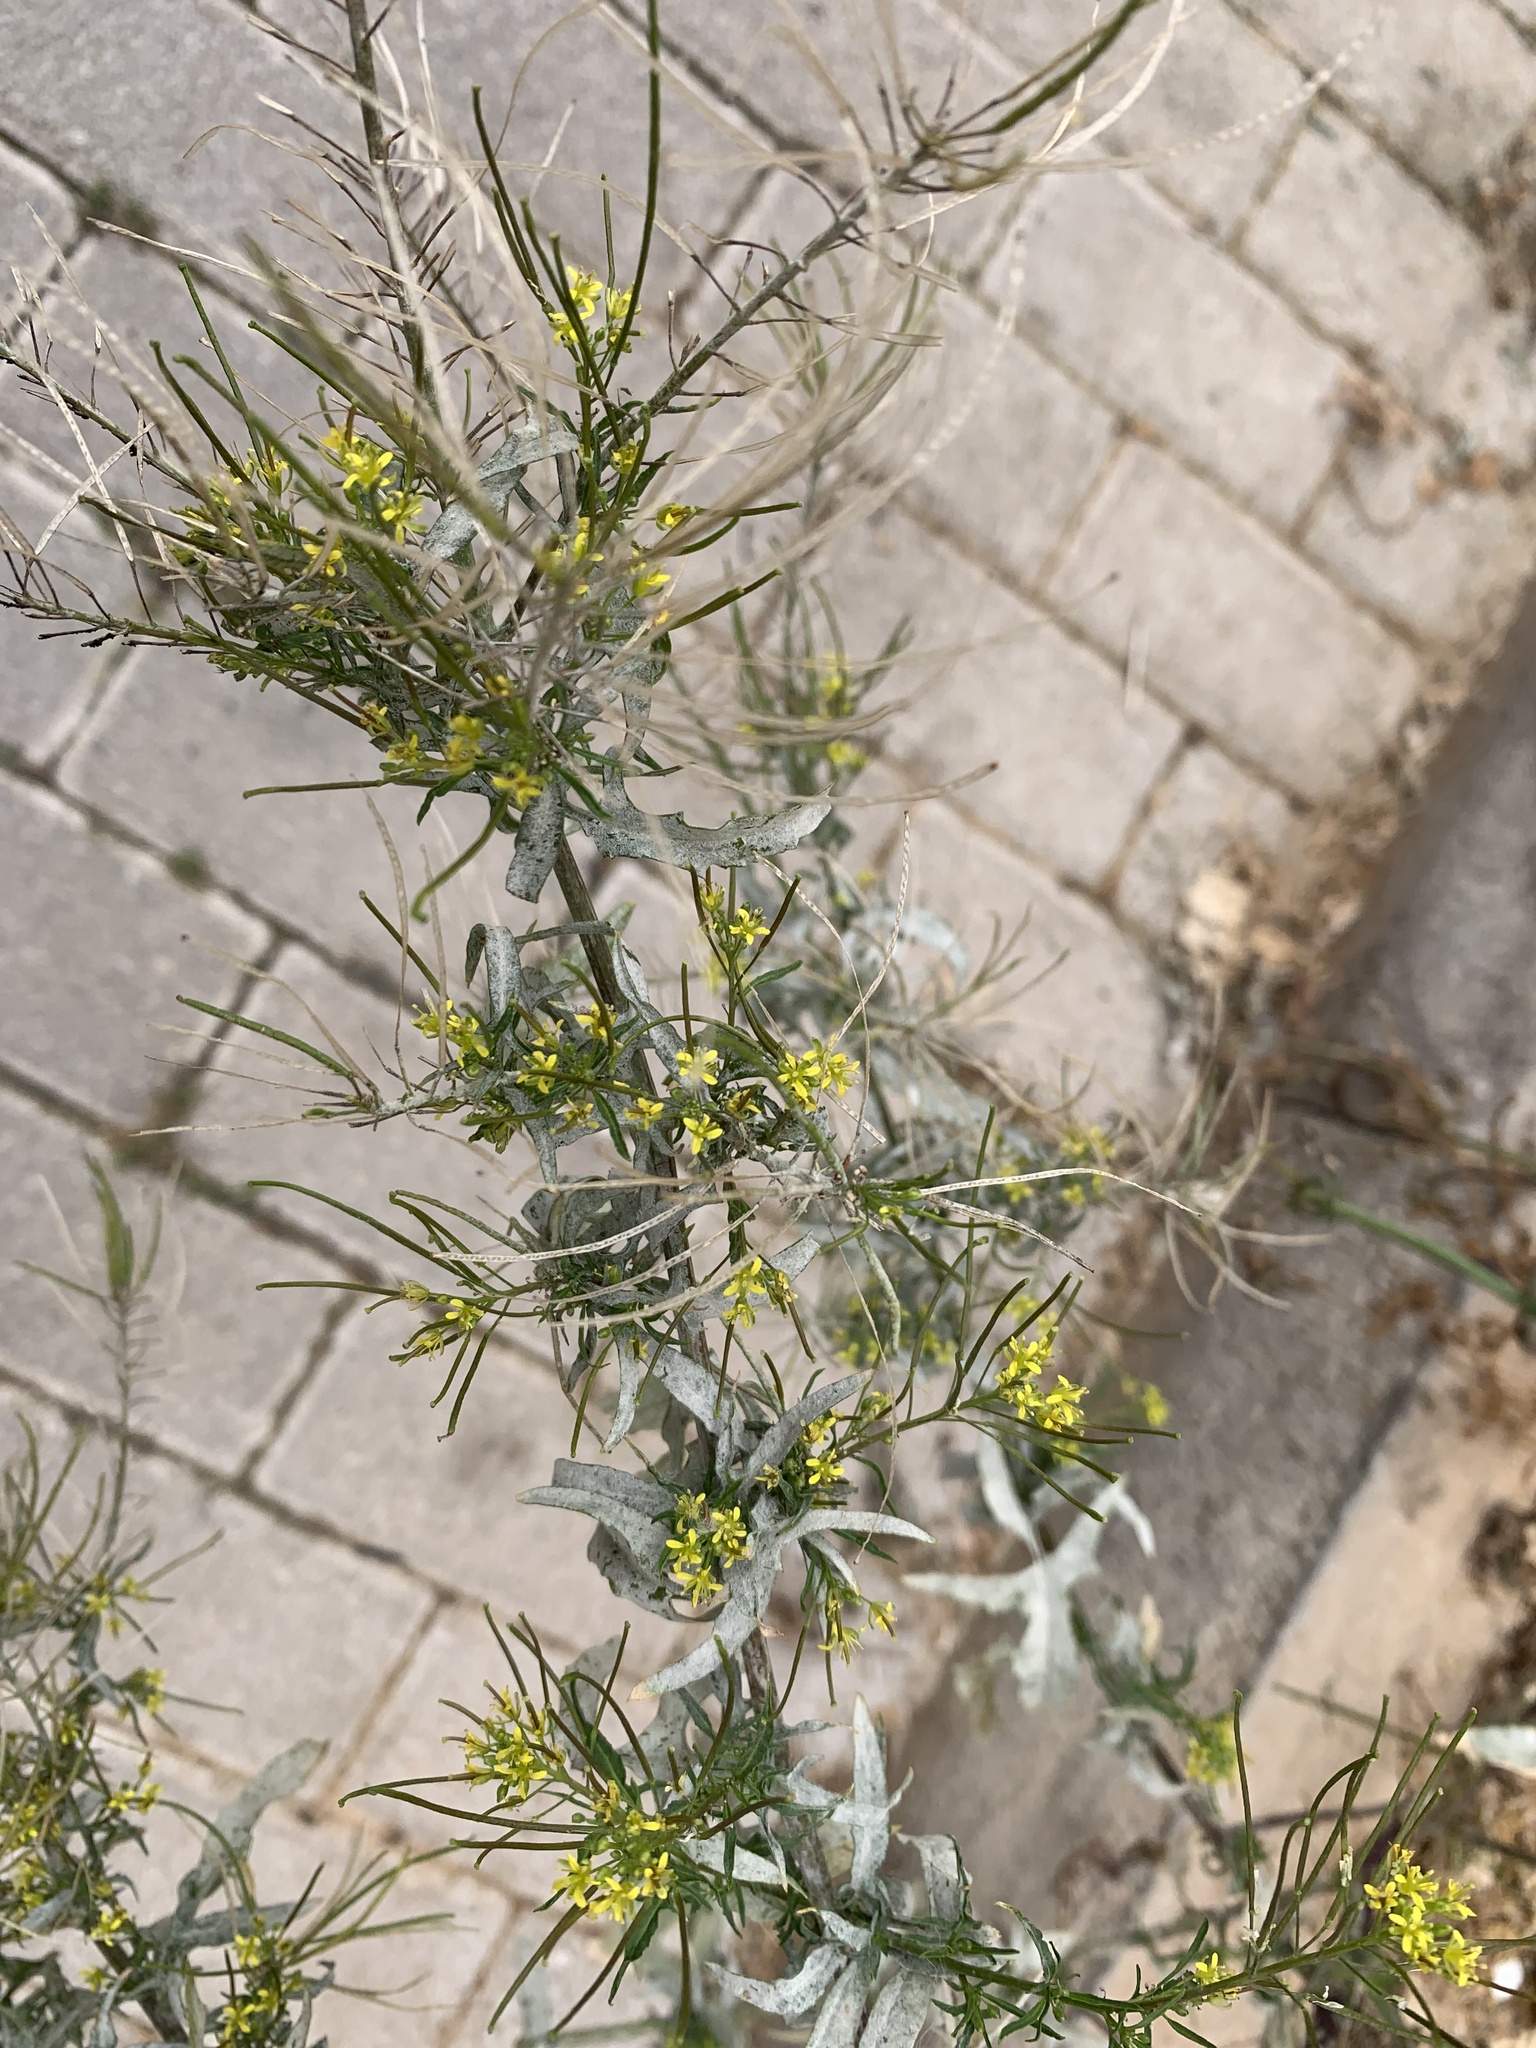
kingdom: Plantae
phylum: Tracheophyta
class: Magnoliopsida
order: Brassicales
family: Brassicaceae
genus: Sisymbrium
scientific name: Sisymbrium irio
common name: London rocket
